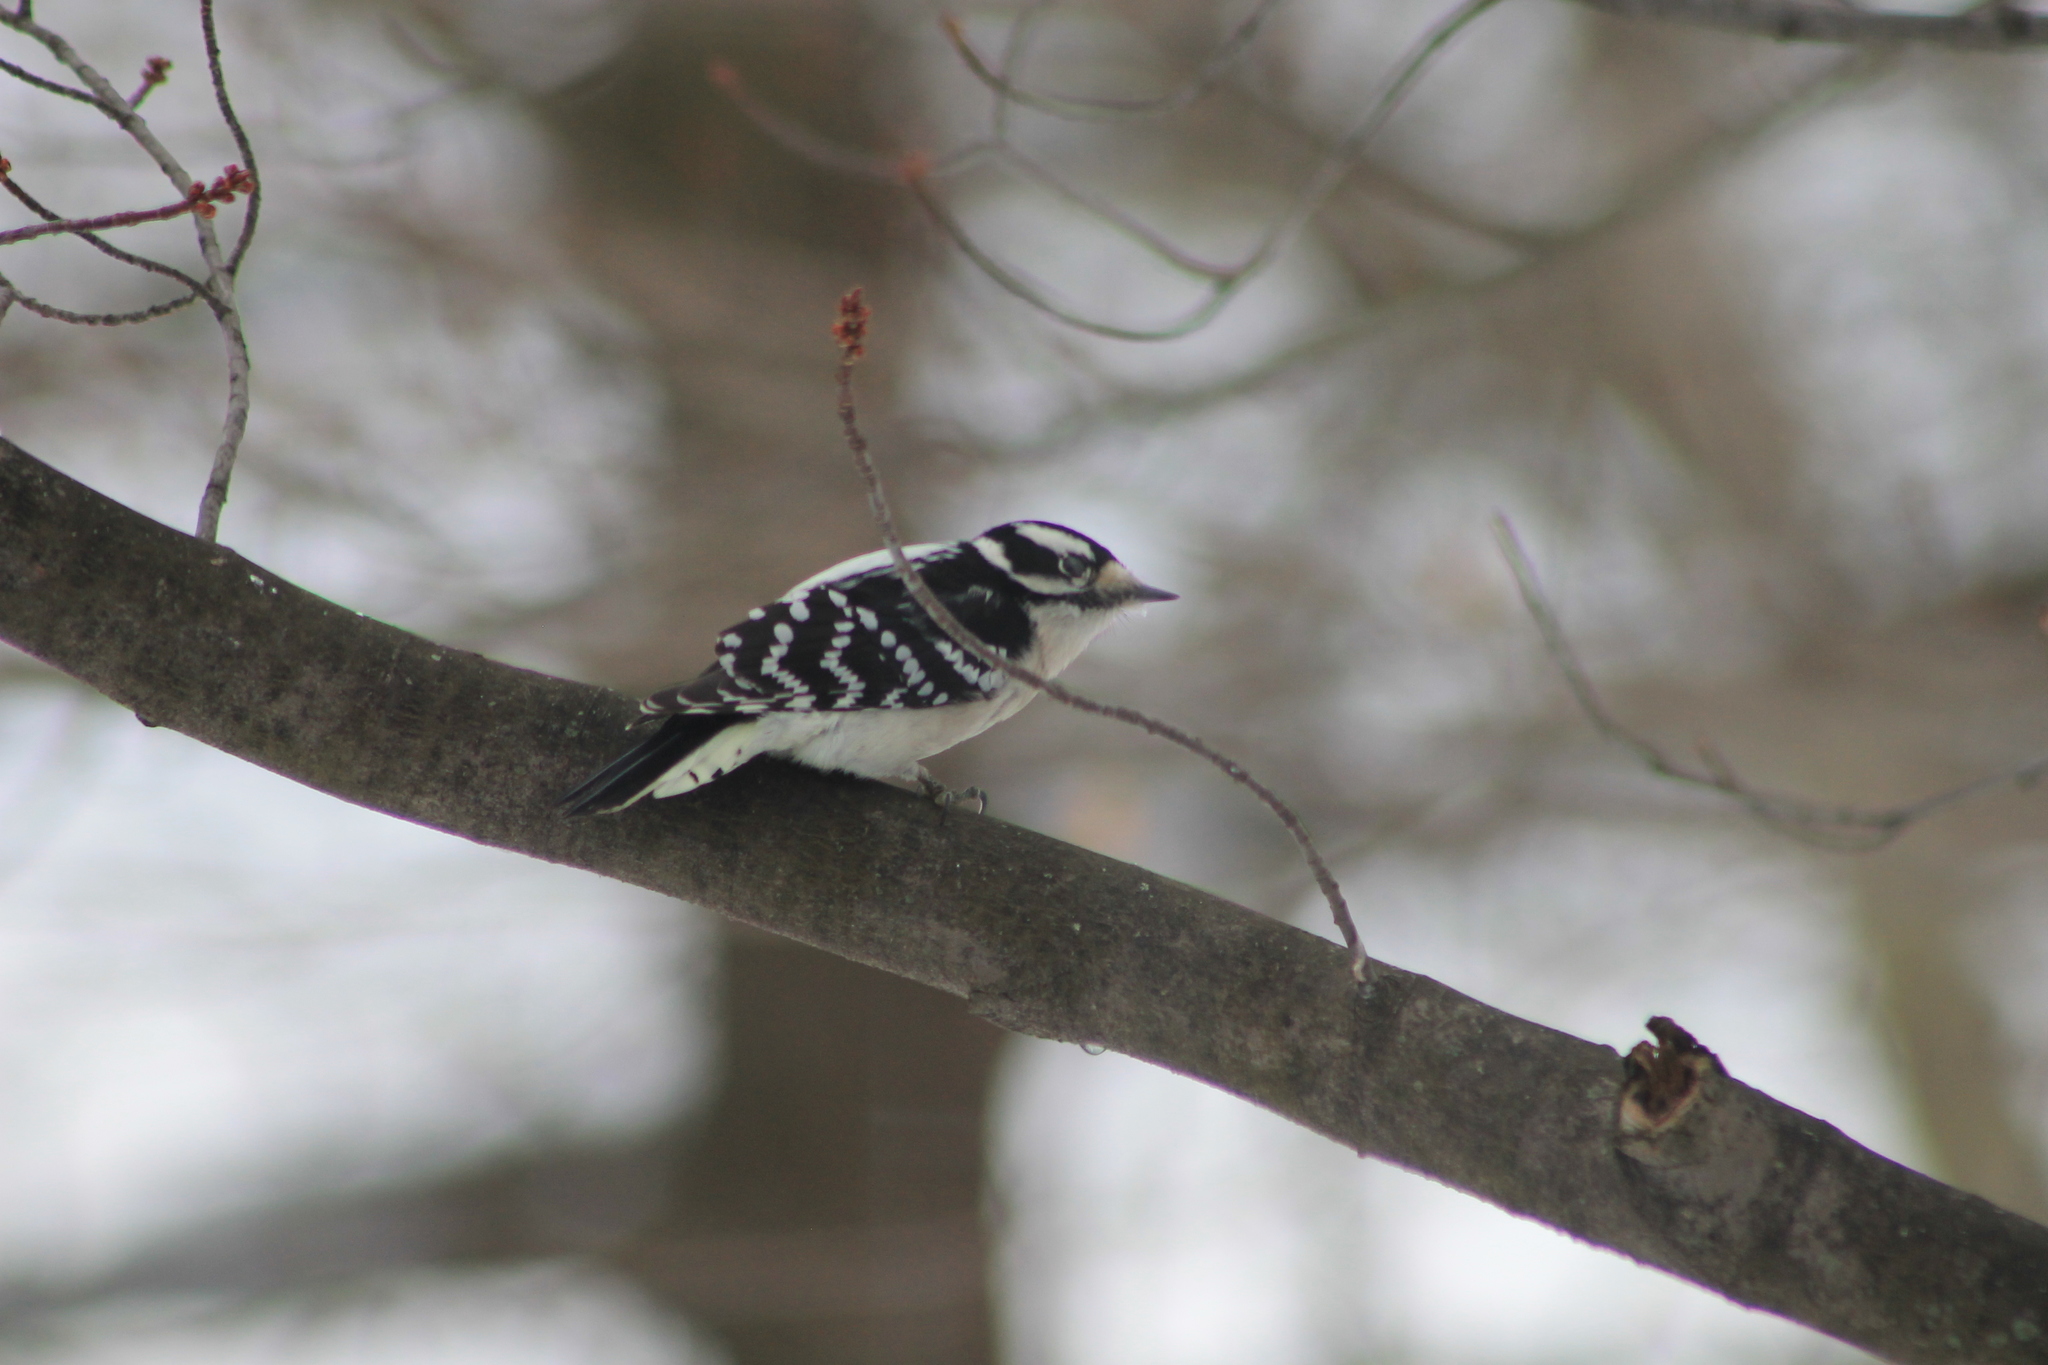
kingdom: Animalia
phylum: Chordata
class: Aves
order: Piciformes
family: Picidae
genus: Dryobates
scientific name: Dryobates pubescens
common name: Downy woodpecker
